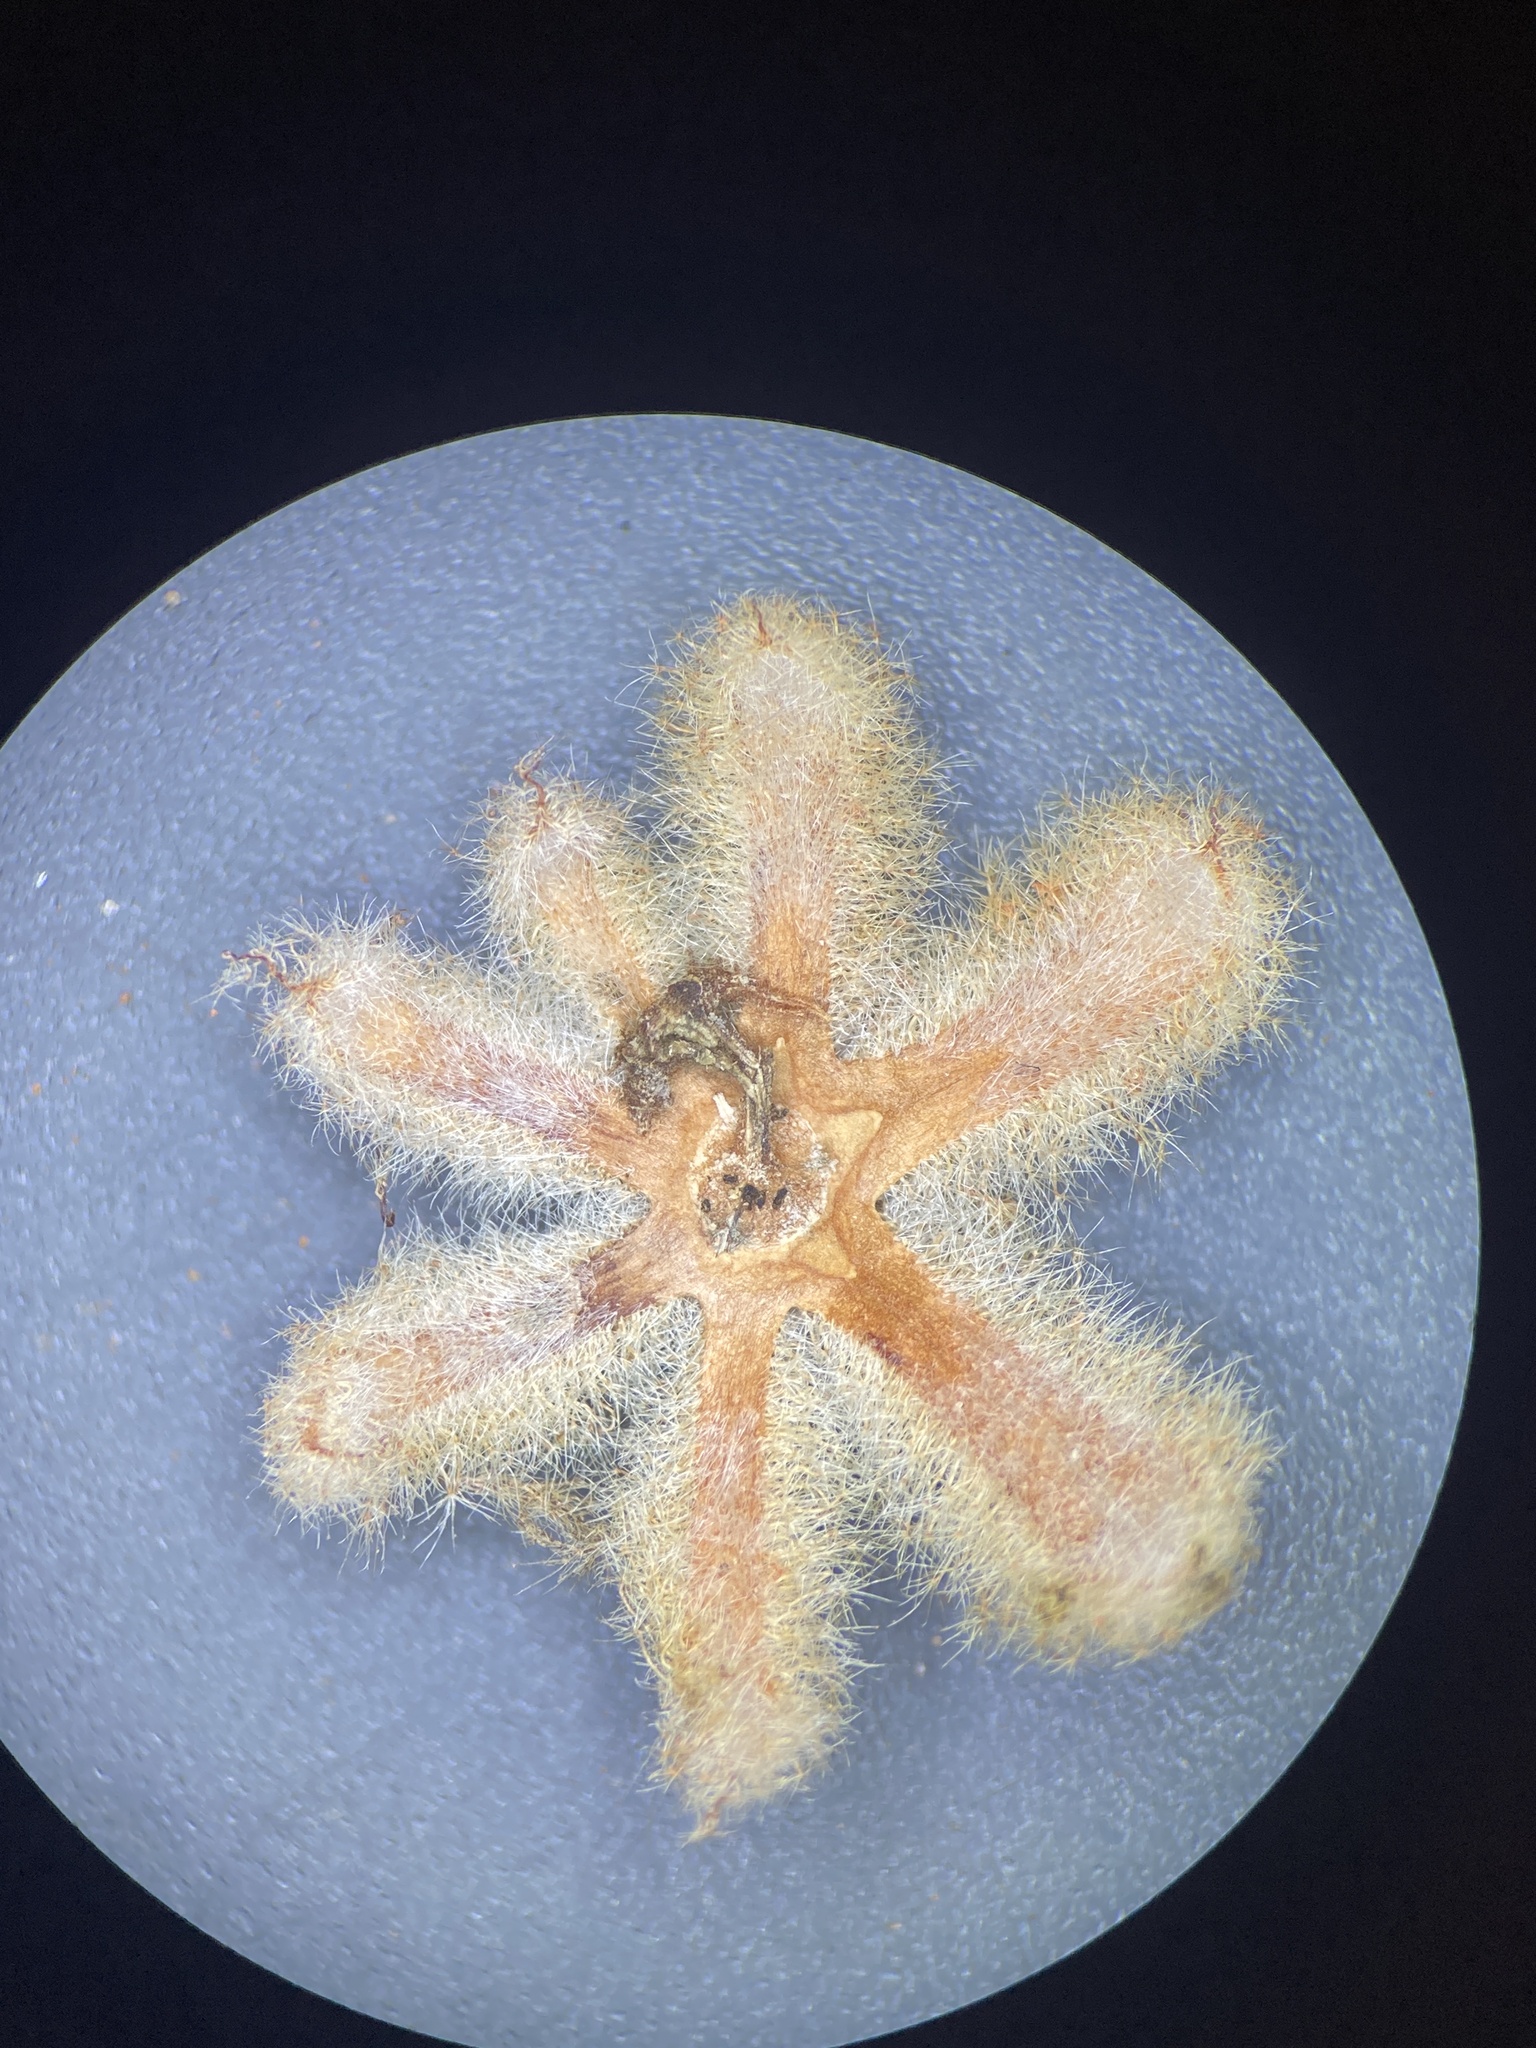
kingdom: Plantae
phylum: Tracheophyta
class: Magnoliopsida
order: Malpighiales
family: Euphorbiaceae
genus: Croton
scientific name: Croton lindheimeri
